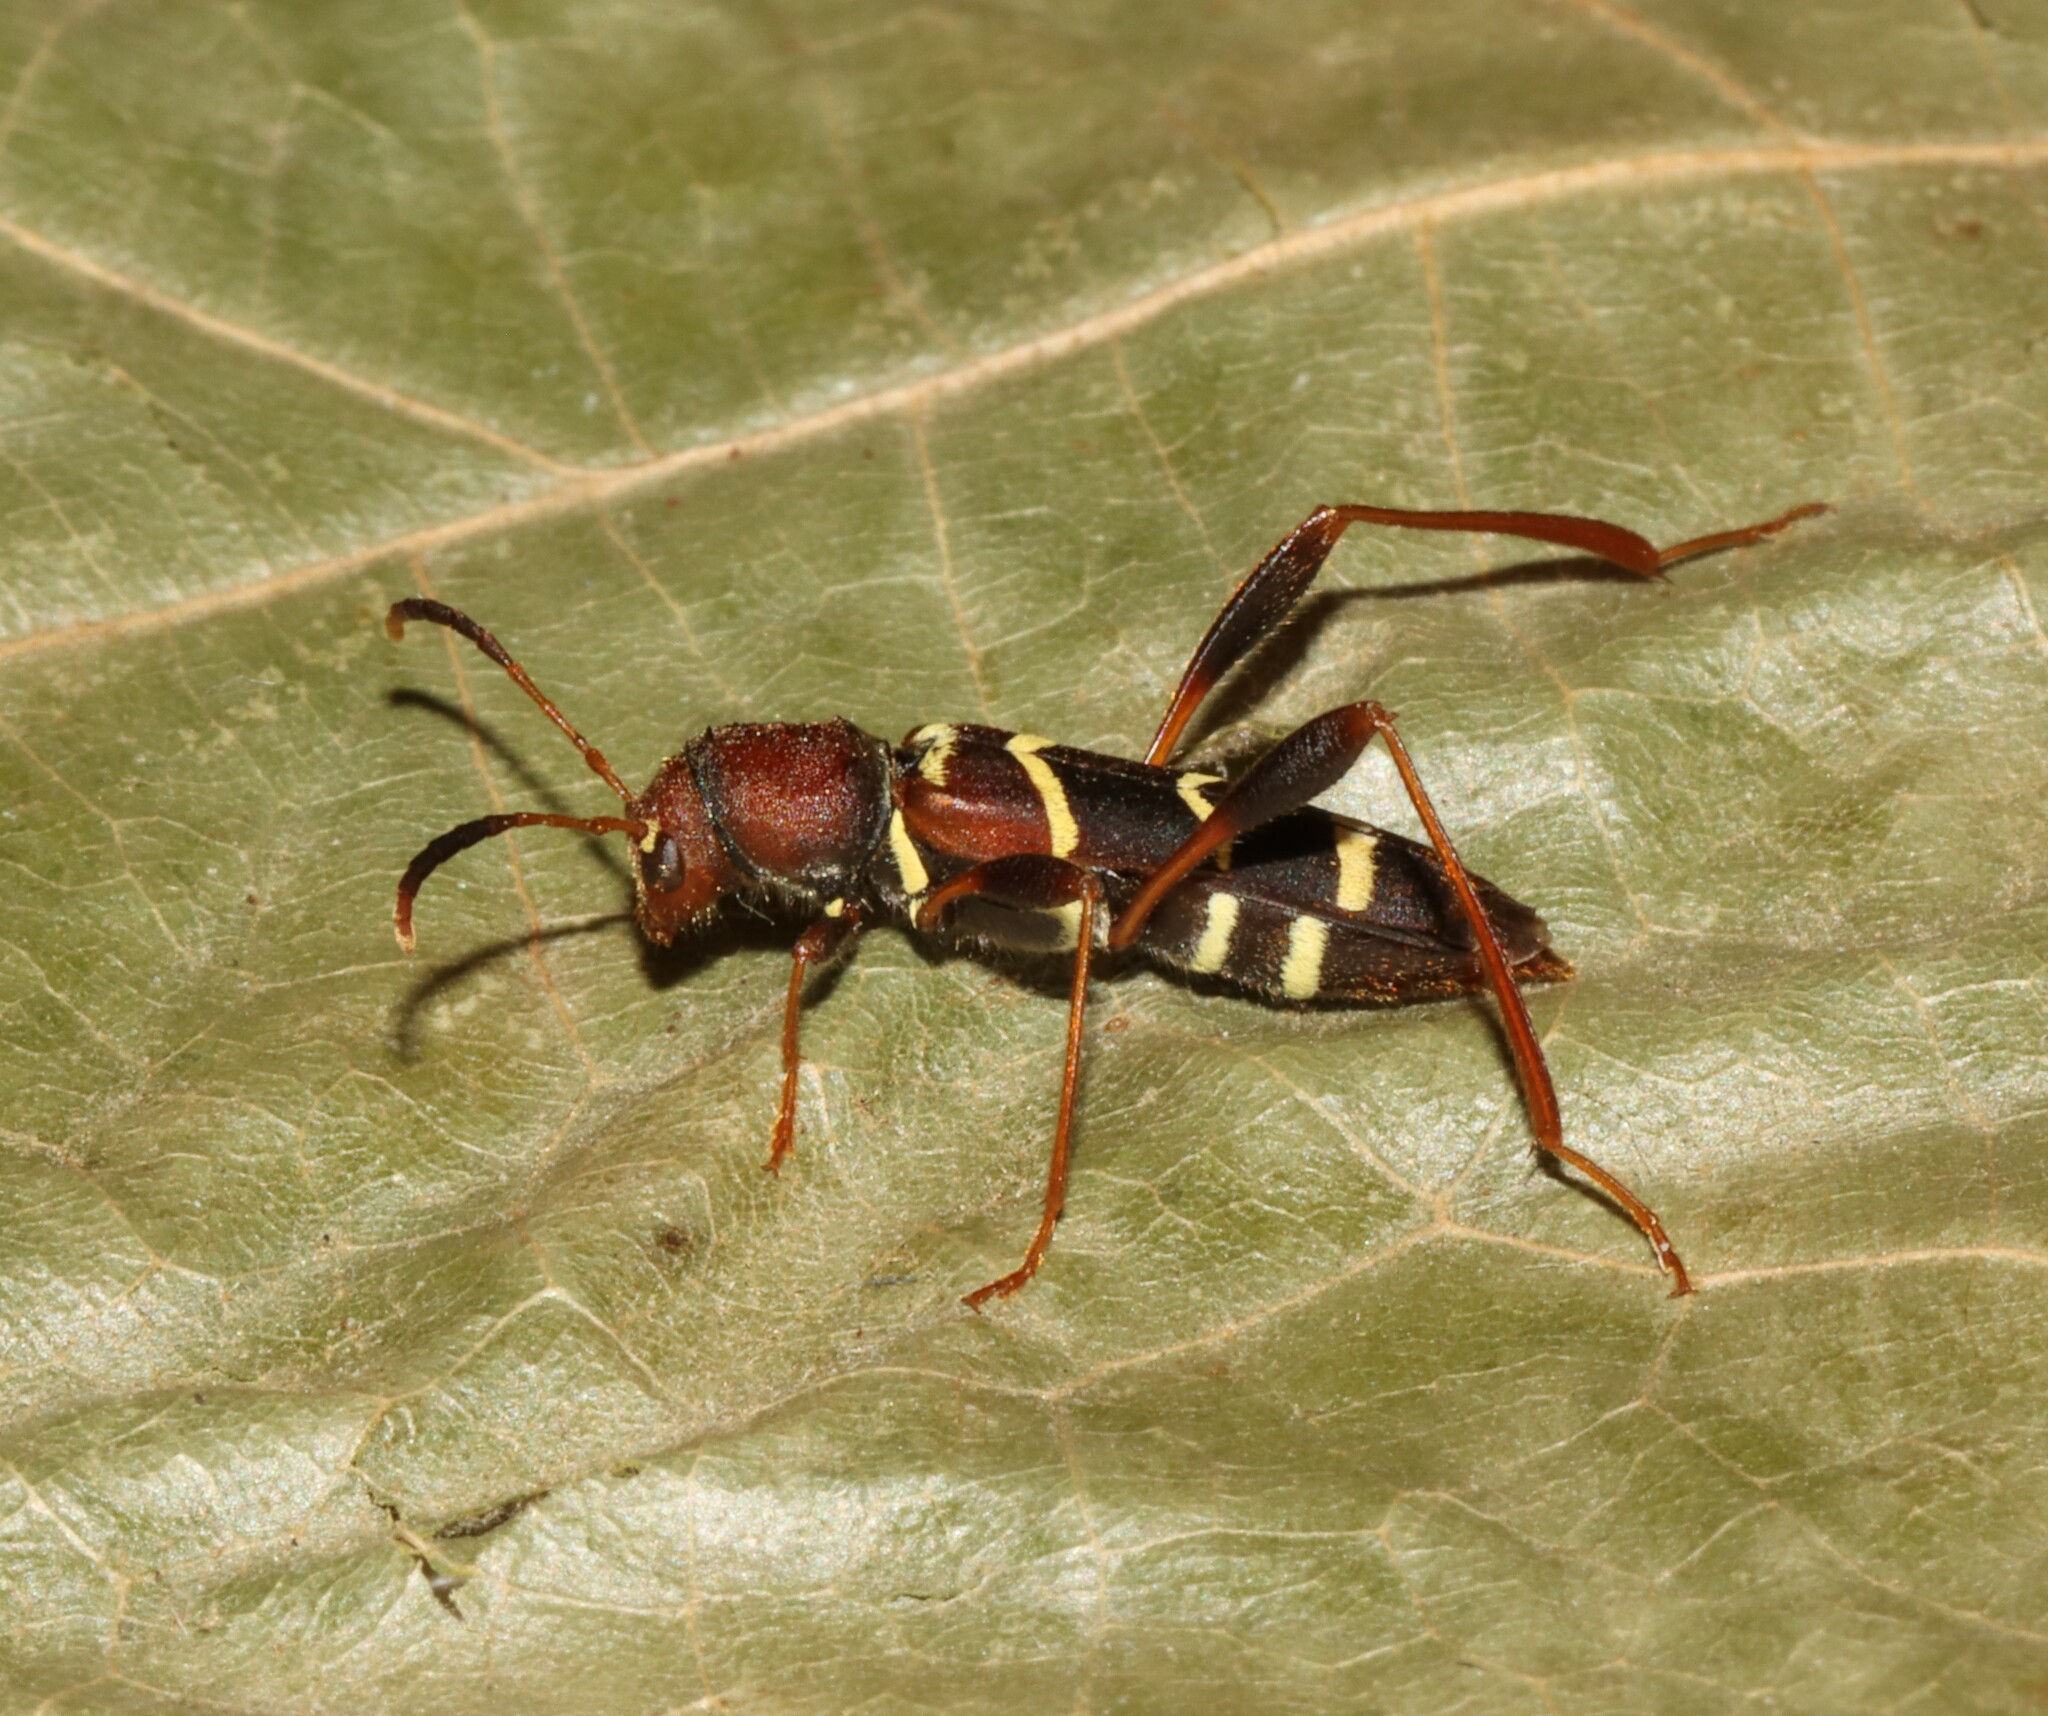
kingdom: Animalia
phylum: Arthropoda
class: Insecta
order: Coleoptera
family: Cerambycidae
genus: Neoclytus
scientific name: Neoclytus acuminatus
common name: Read-headed ash borer
